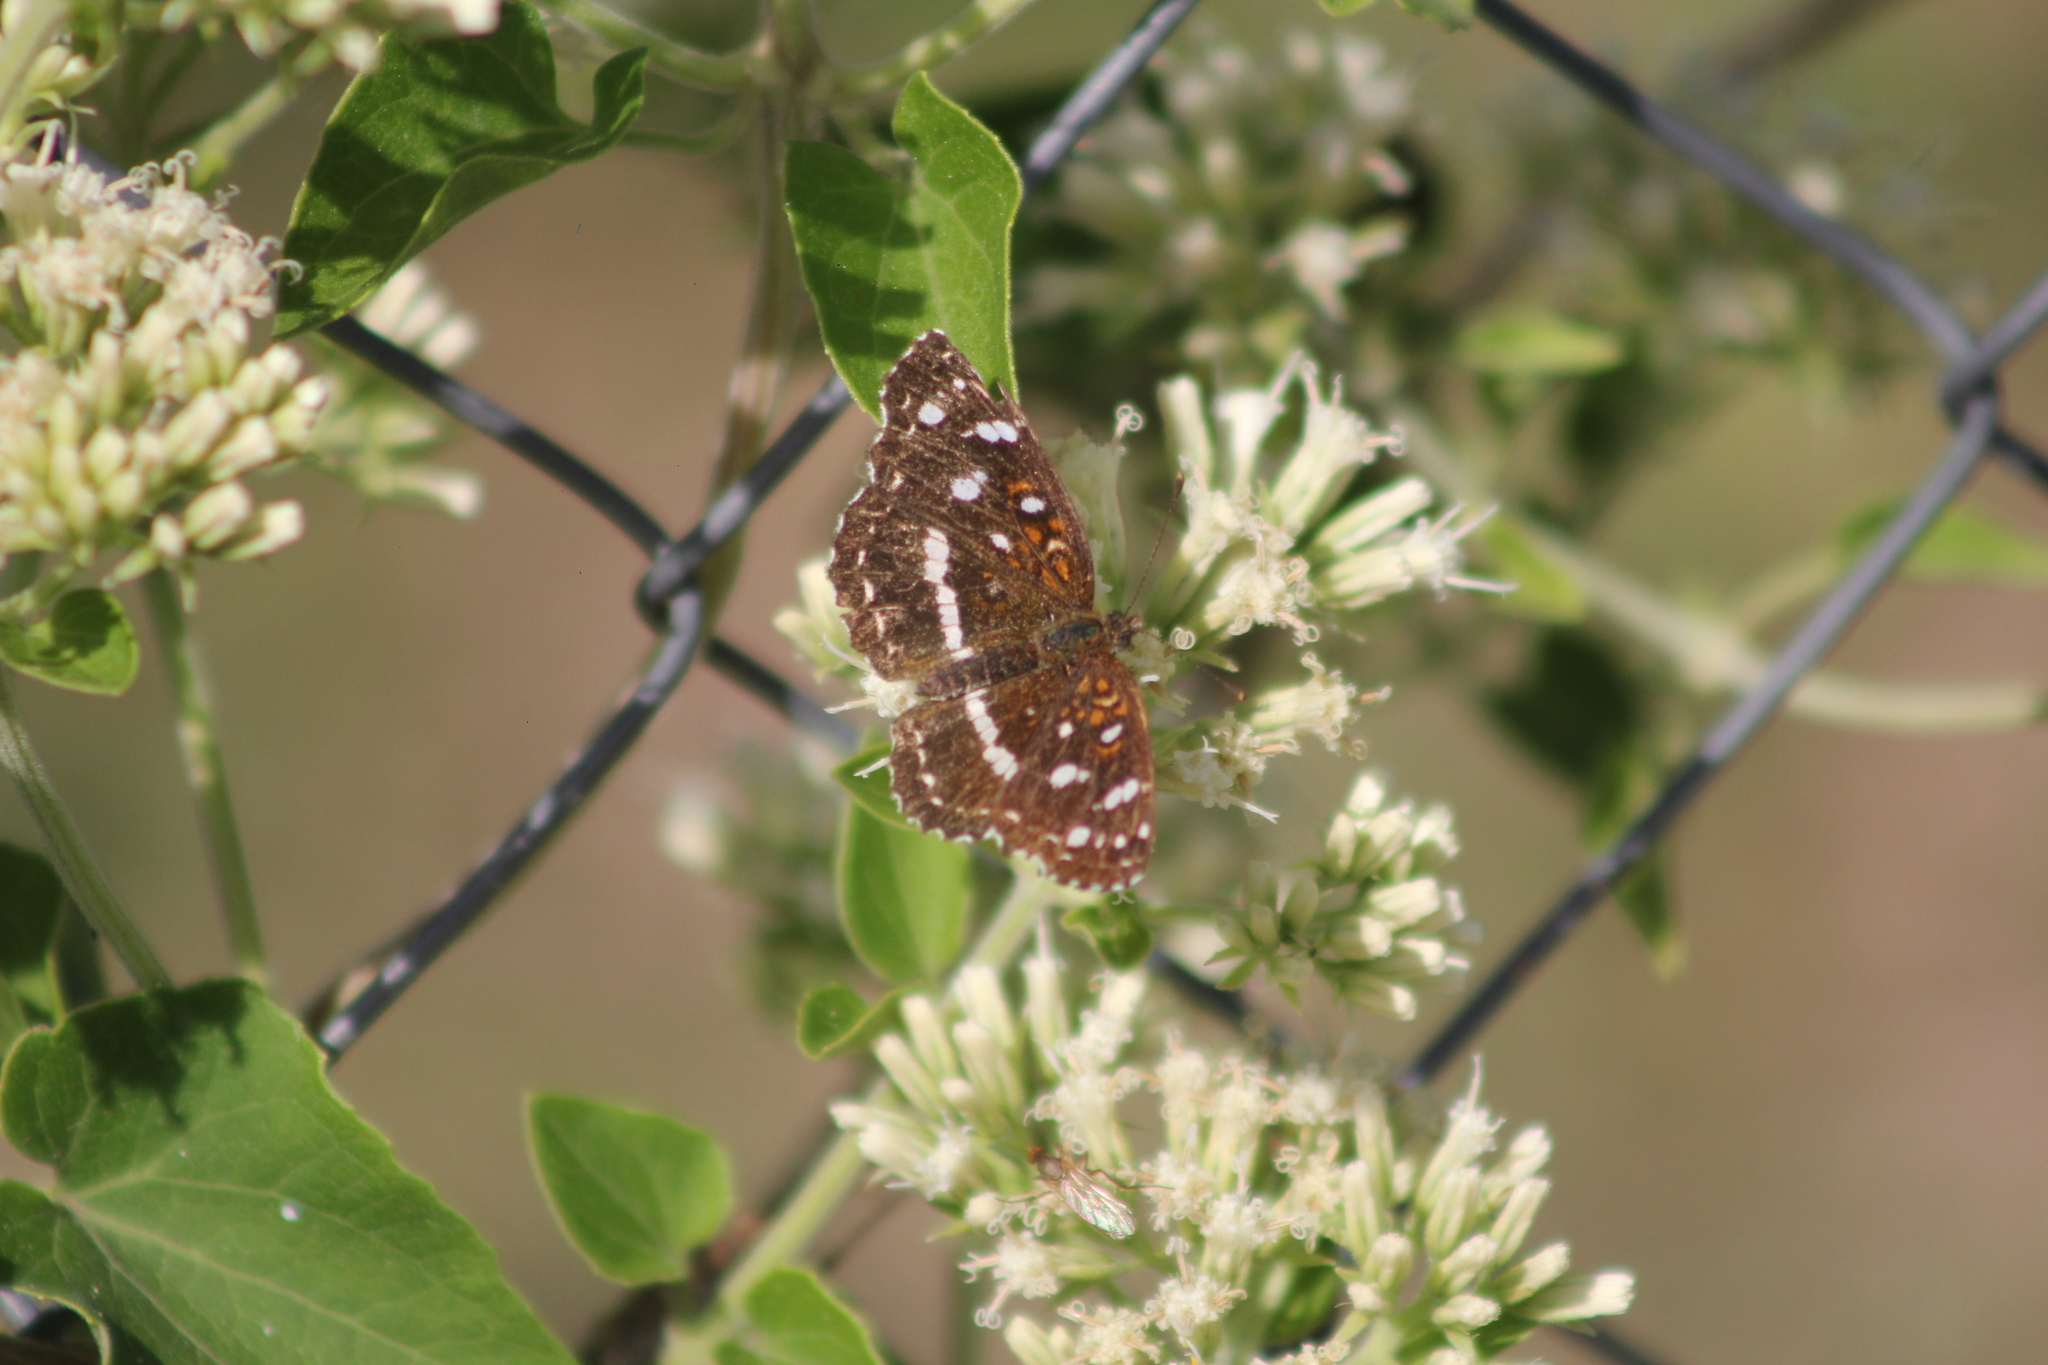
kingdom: Animalia
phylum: Arthropoda
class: Insecta
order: Lepidoptera
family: Nymphalidae
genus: Ortilia
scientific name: Ortilia ithra
